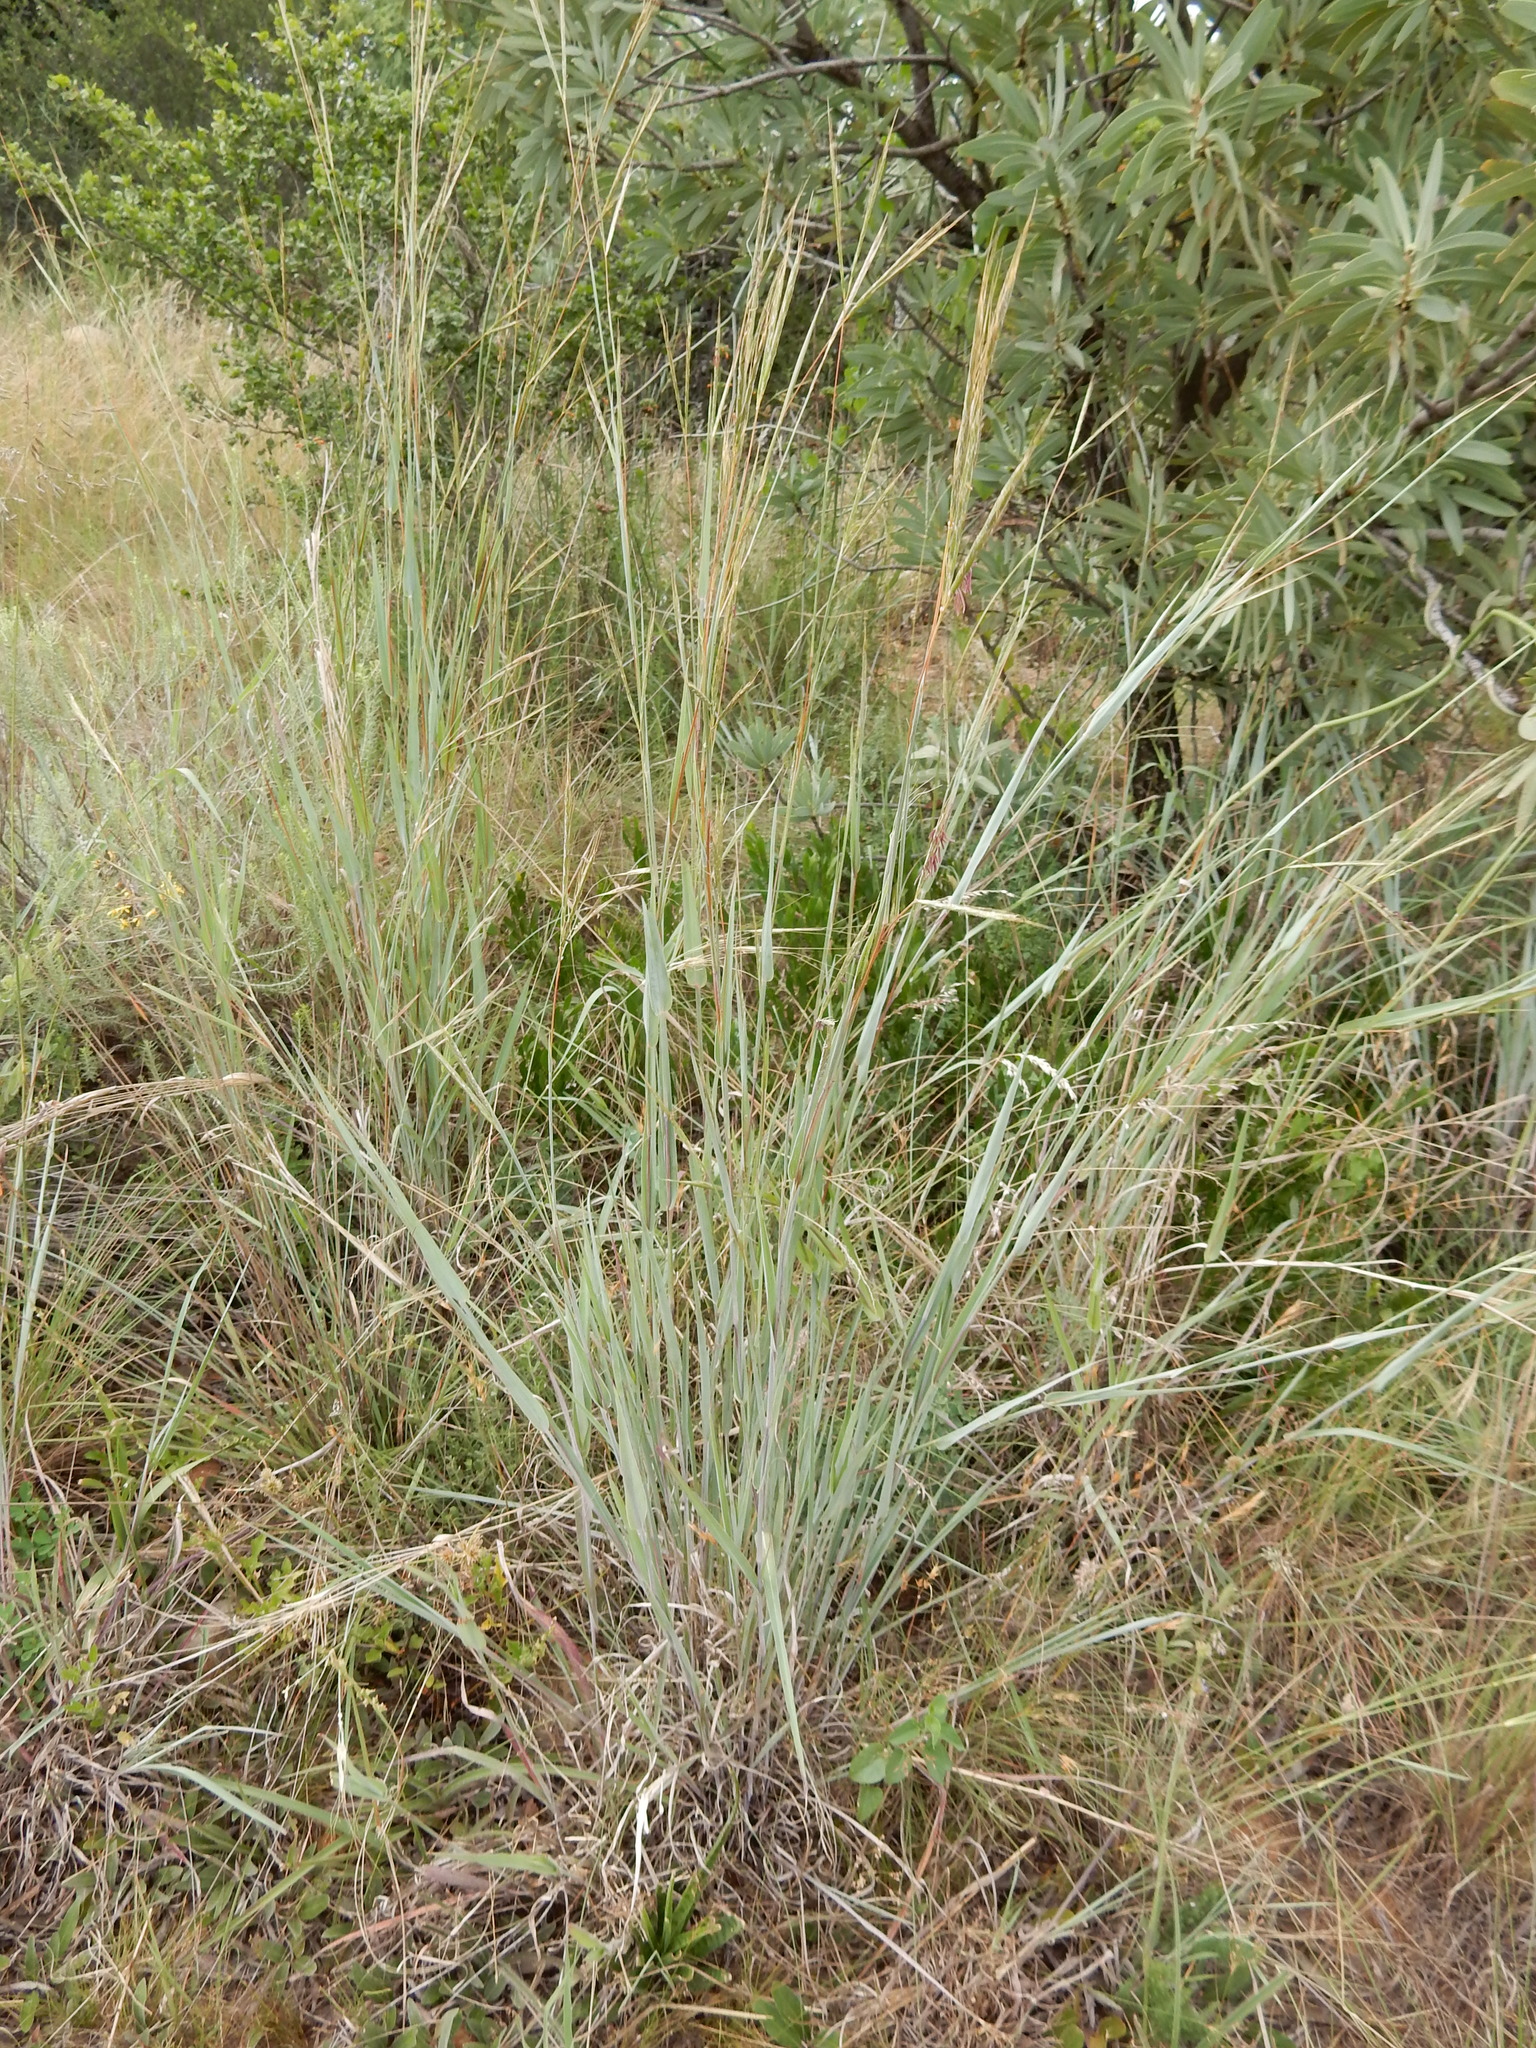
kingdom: Plantae
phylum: Tracheophyta
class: Liliopsida
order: Poales
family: Poaceae
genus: Diheteropogon
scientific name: Diheteropogon amplectens
